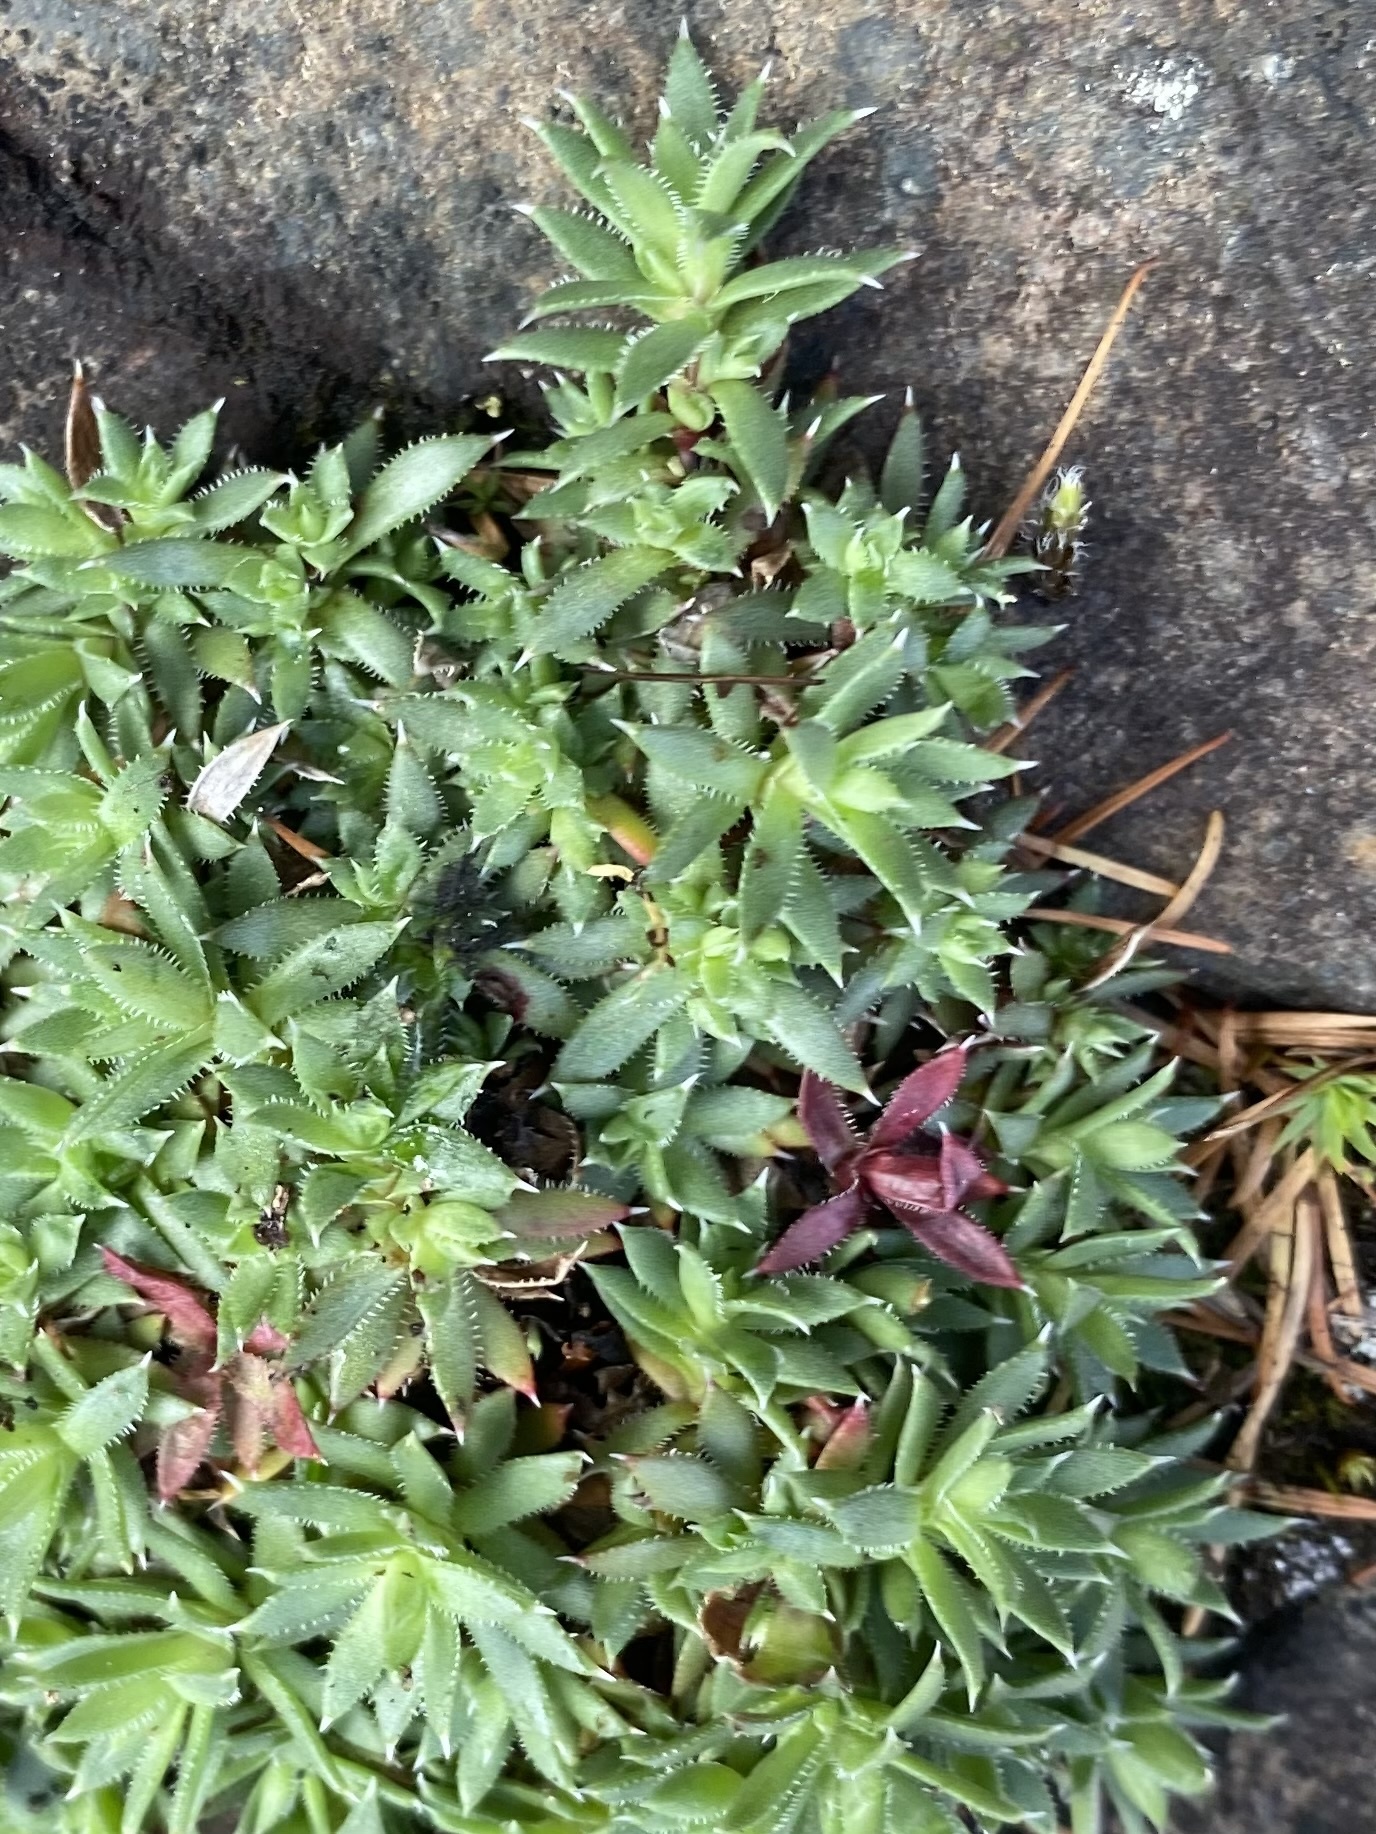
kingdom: Plantae
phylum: Tracheophyta
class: Magnoliopsida
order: Saxifragales
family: Saxifragaceae
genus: Saxifraga
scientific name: Saxifraga bronchialis
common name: Matted saxifrage
